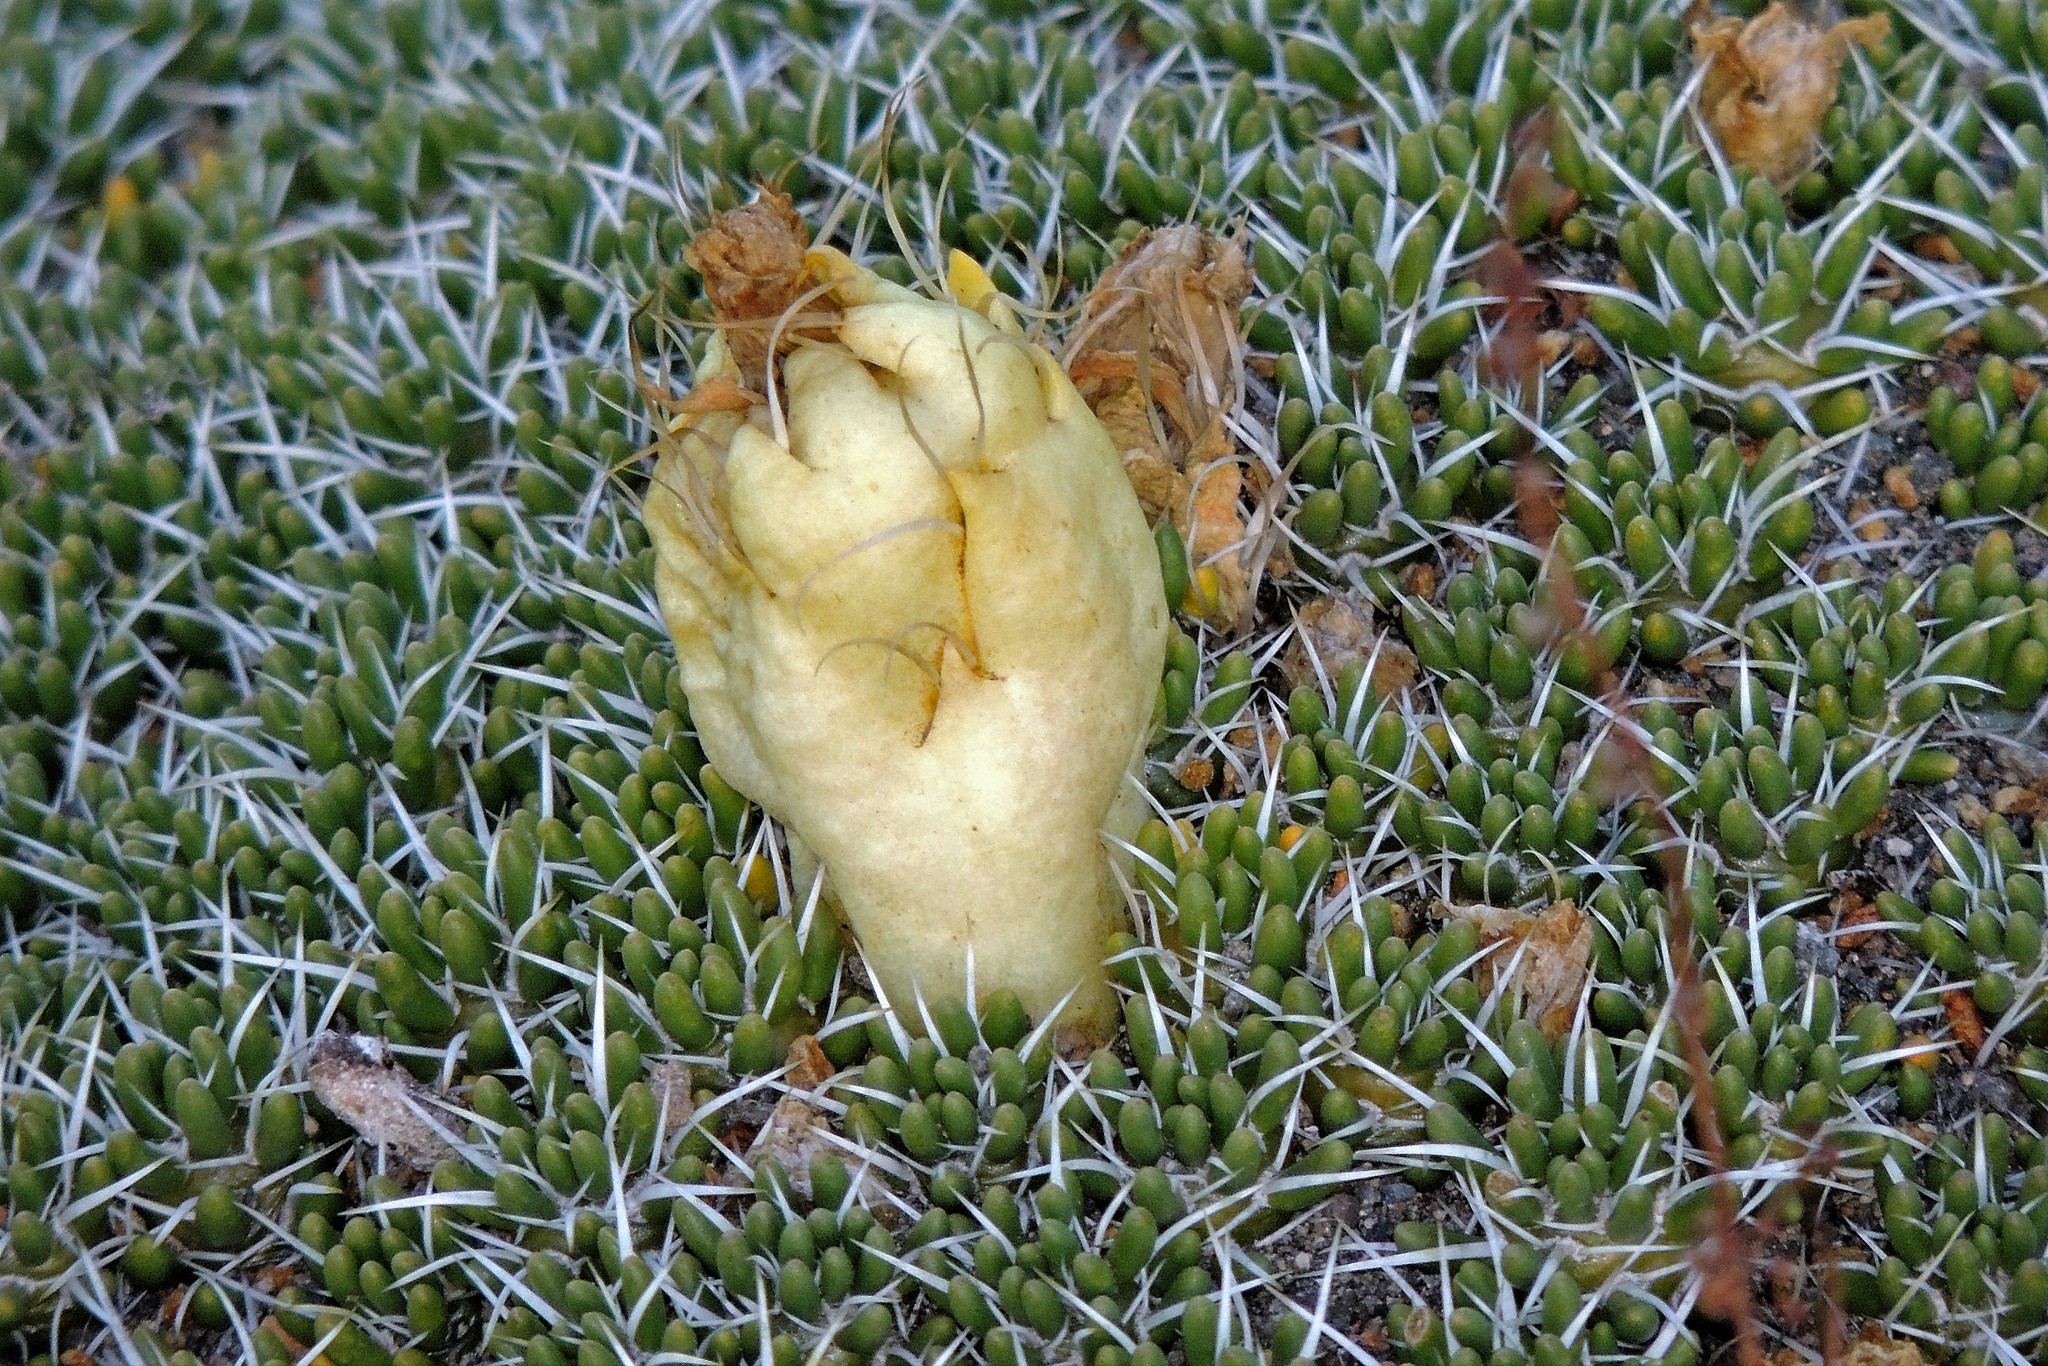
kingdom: Plantae
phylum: Tracheophyta
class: Magnoliopsida
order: Caryophyllales
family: Cactaceae
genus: Maihuenia
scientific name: Maihuenia poeppigii
